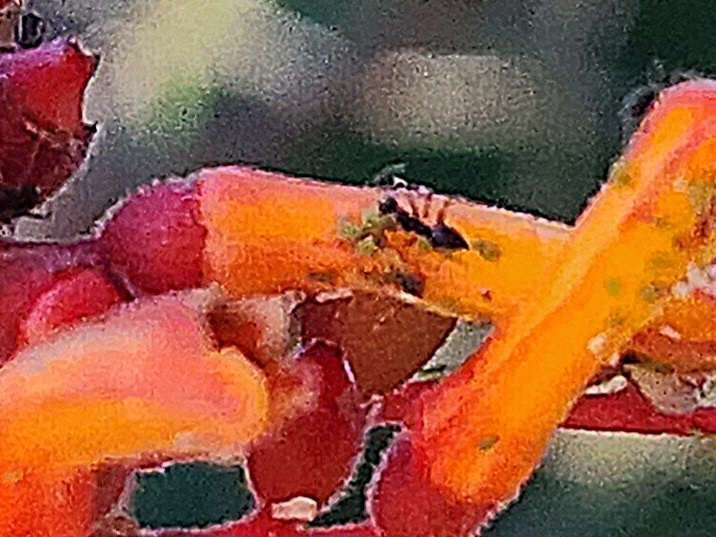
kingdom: Animalia
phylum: Arthropoda
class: Insecta
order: Hymenoptera
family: Formicidae
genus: Paratrechina
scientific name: Paratrechina longicornis
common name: Longhorned crazy ant
